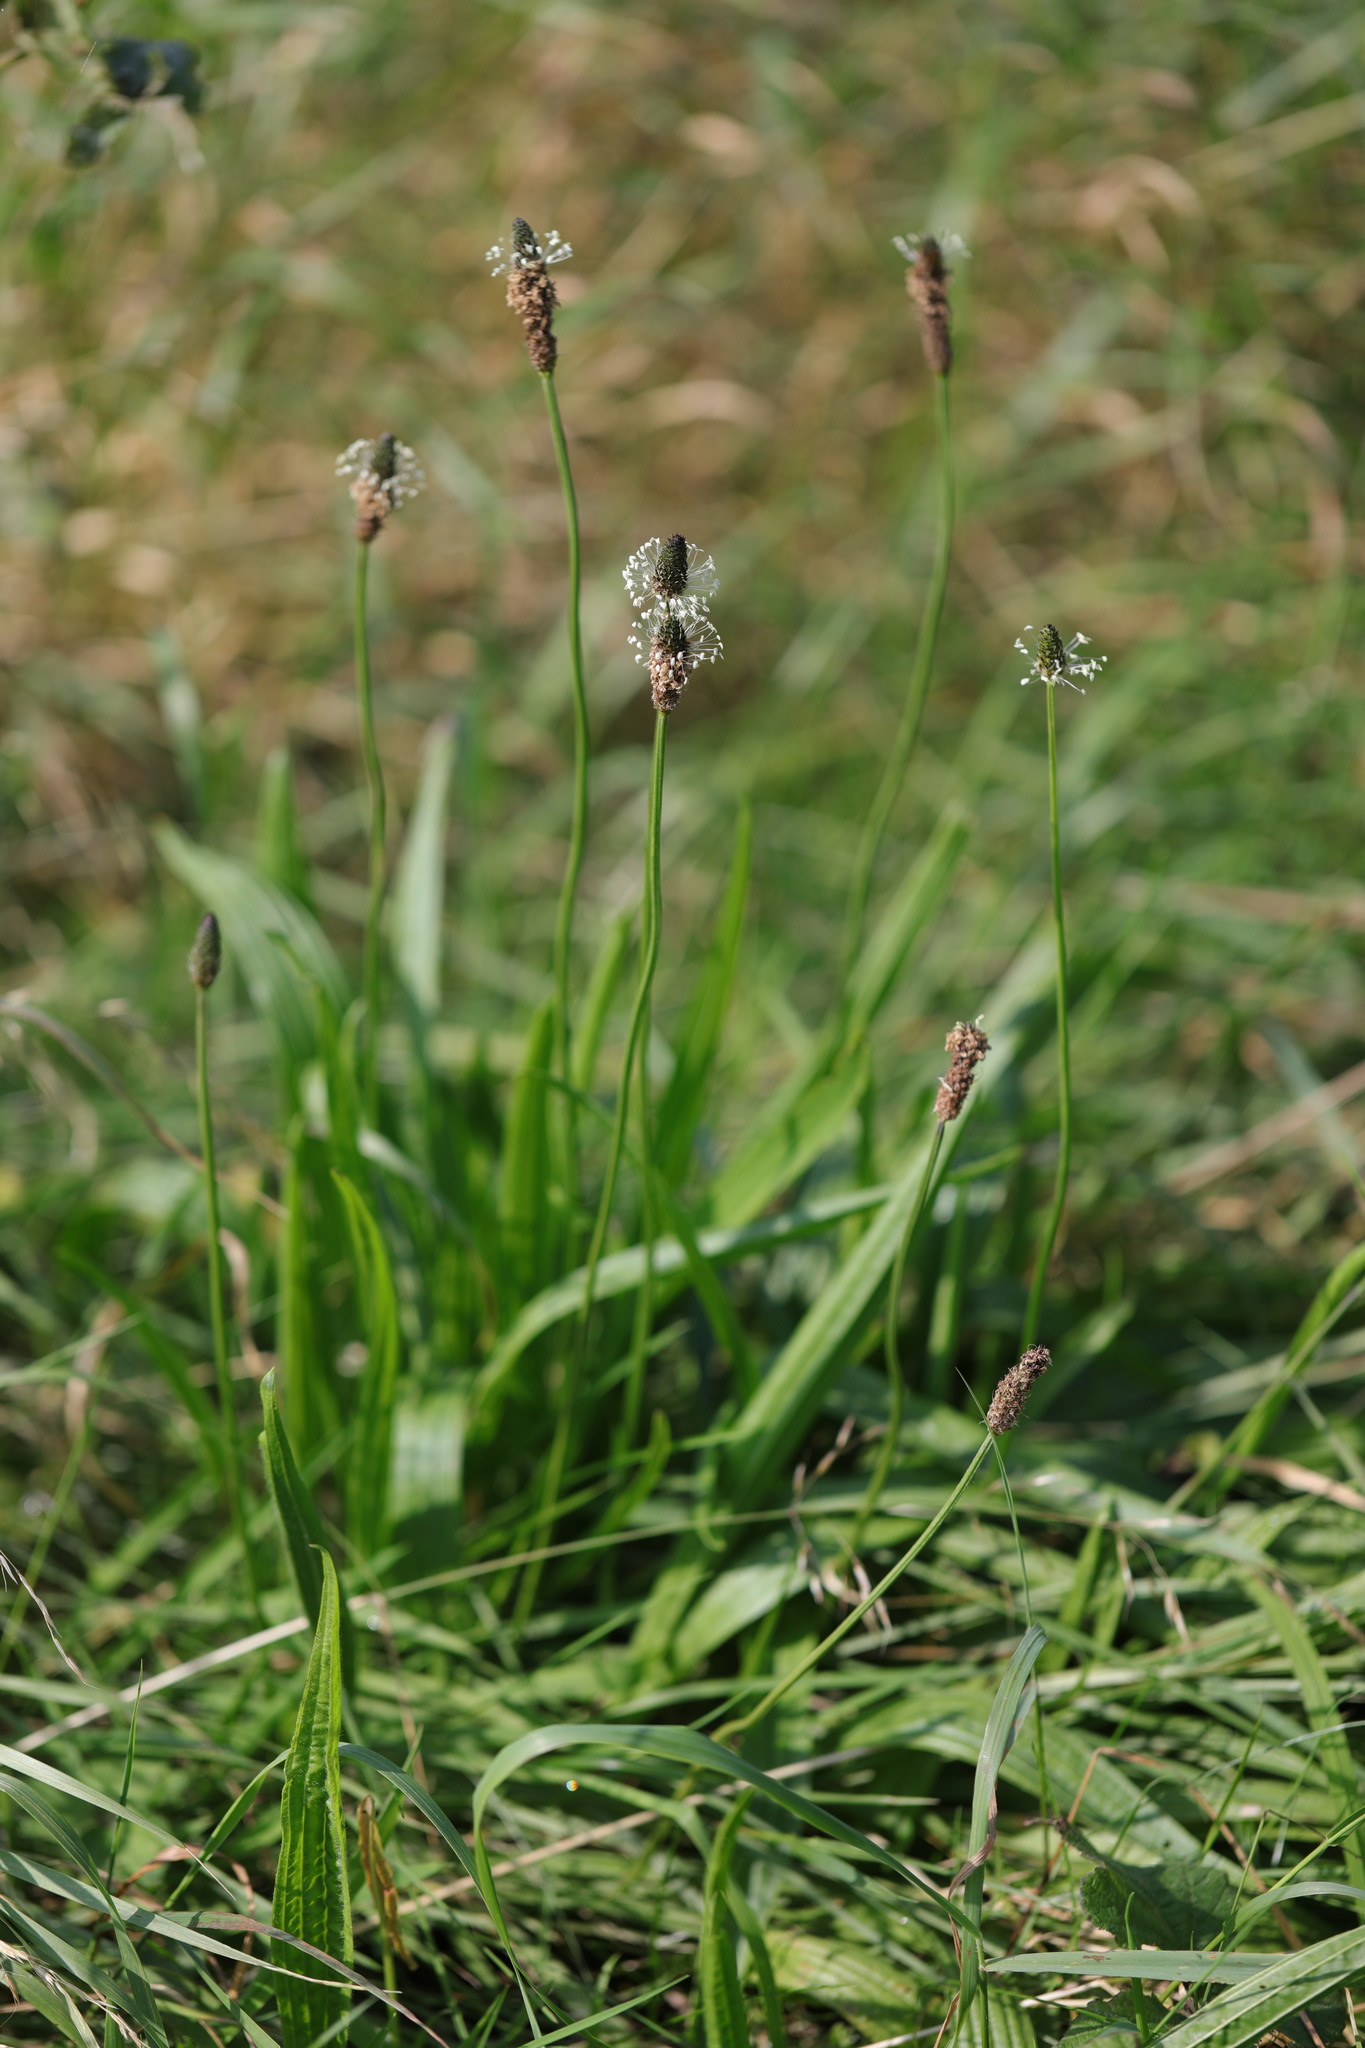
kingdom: Plantae
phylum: Tracheophyta
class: Magnoliopsida
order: Lamiales
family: Plantaginaceae
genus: Plantago
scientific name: Plantago lanceolata
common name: Ribwort plantain
